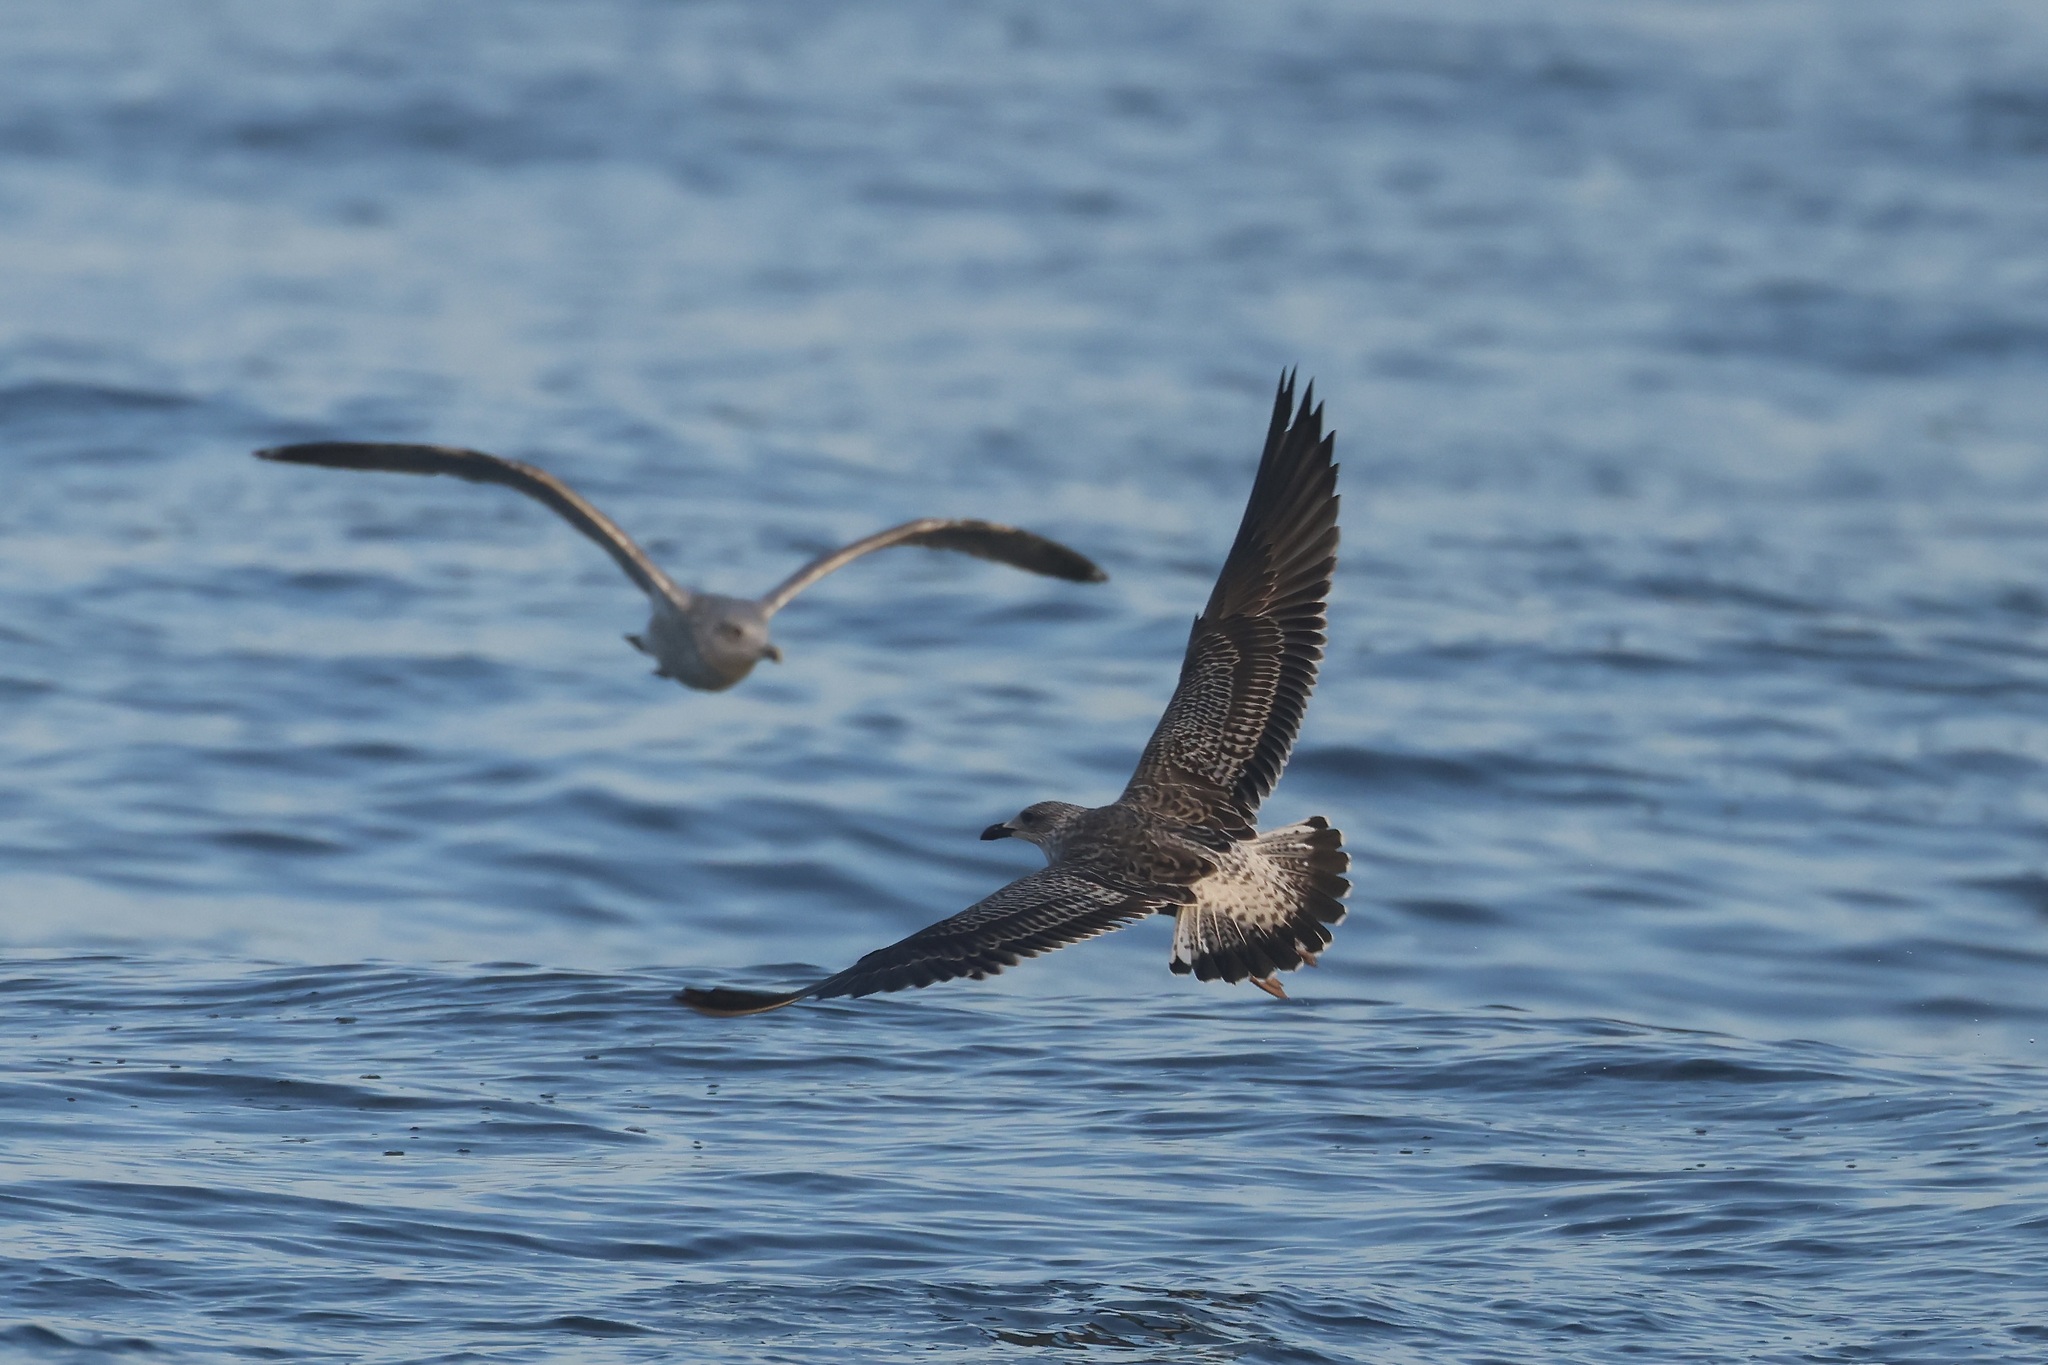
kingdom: Animalia
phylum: Chordata
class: Aves
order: Charadriiformes
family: Laridae
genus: Larus
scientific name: Larus fuscus
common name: Lesser black-backed gull
